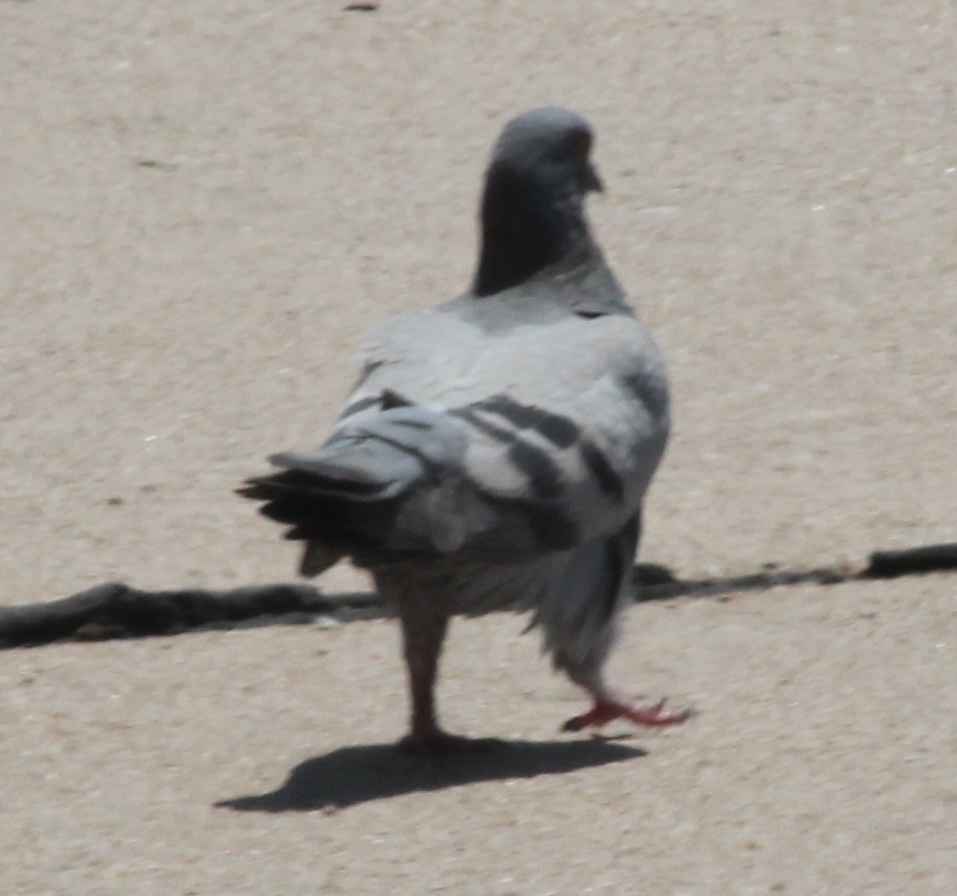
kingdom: Animalia
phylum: Chordata
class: Aves
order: Columbiformes
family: Columbidae
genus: Columba
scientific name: Columba livia
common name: Rock pigeon
